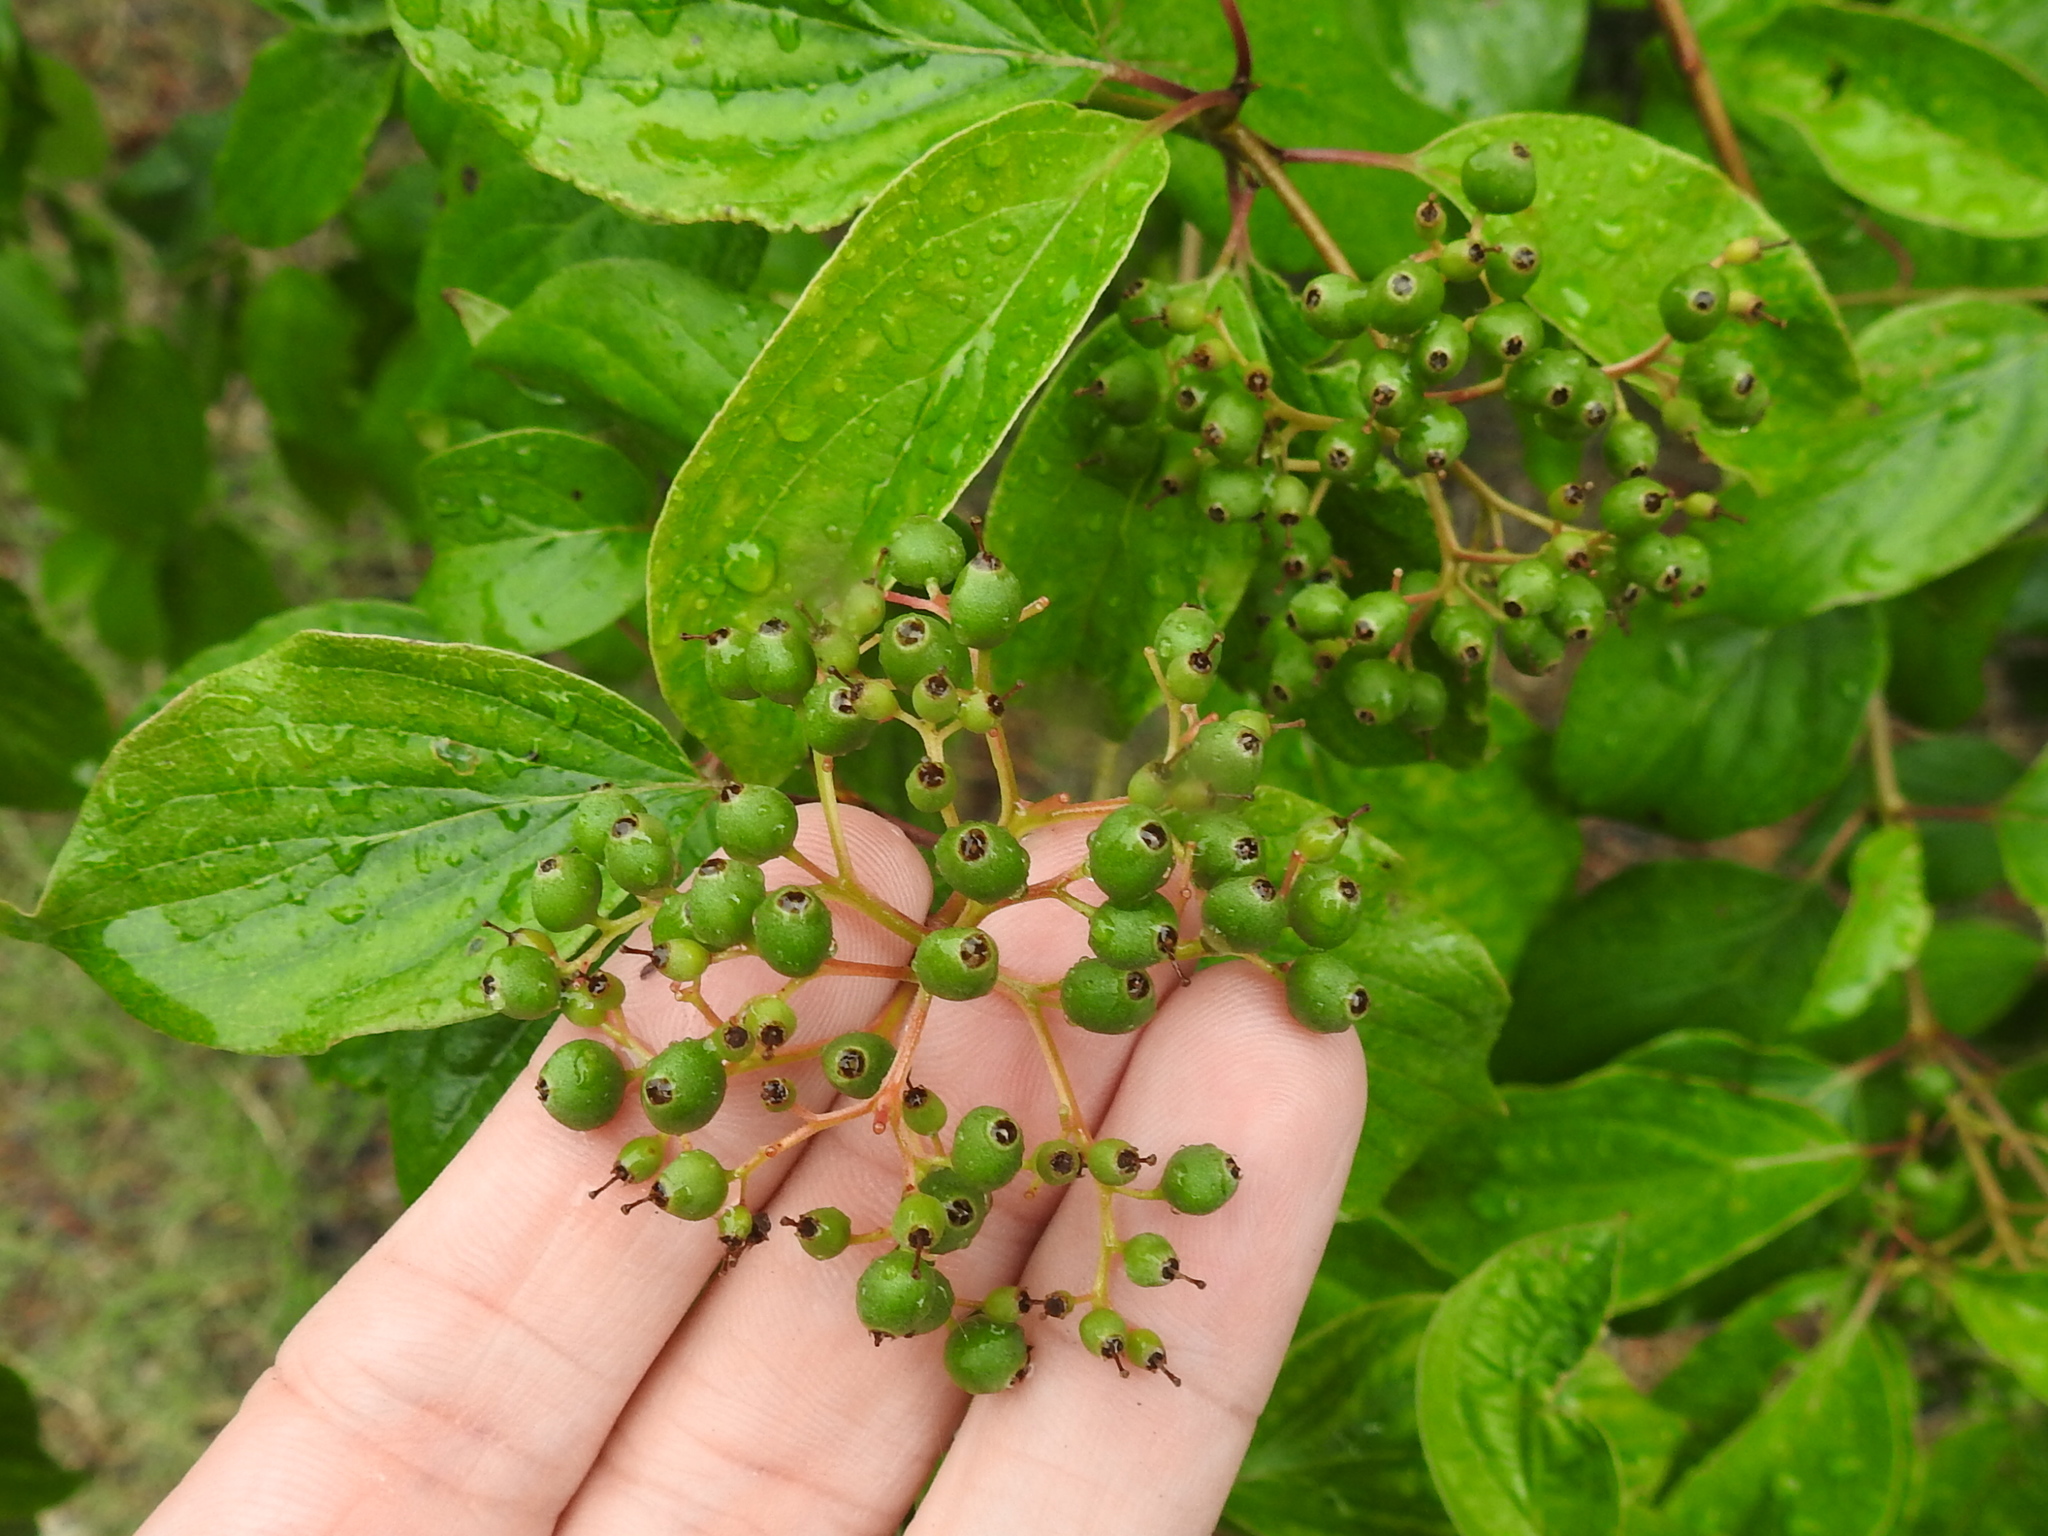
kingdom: Plantae
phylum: Tracheophyta
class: Magnoliopsida
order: Cornales
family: Cornaceae
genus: Cornus
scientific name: Cornus drummondii
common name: Rough-leaf dogwood
